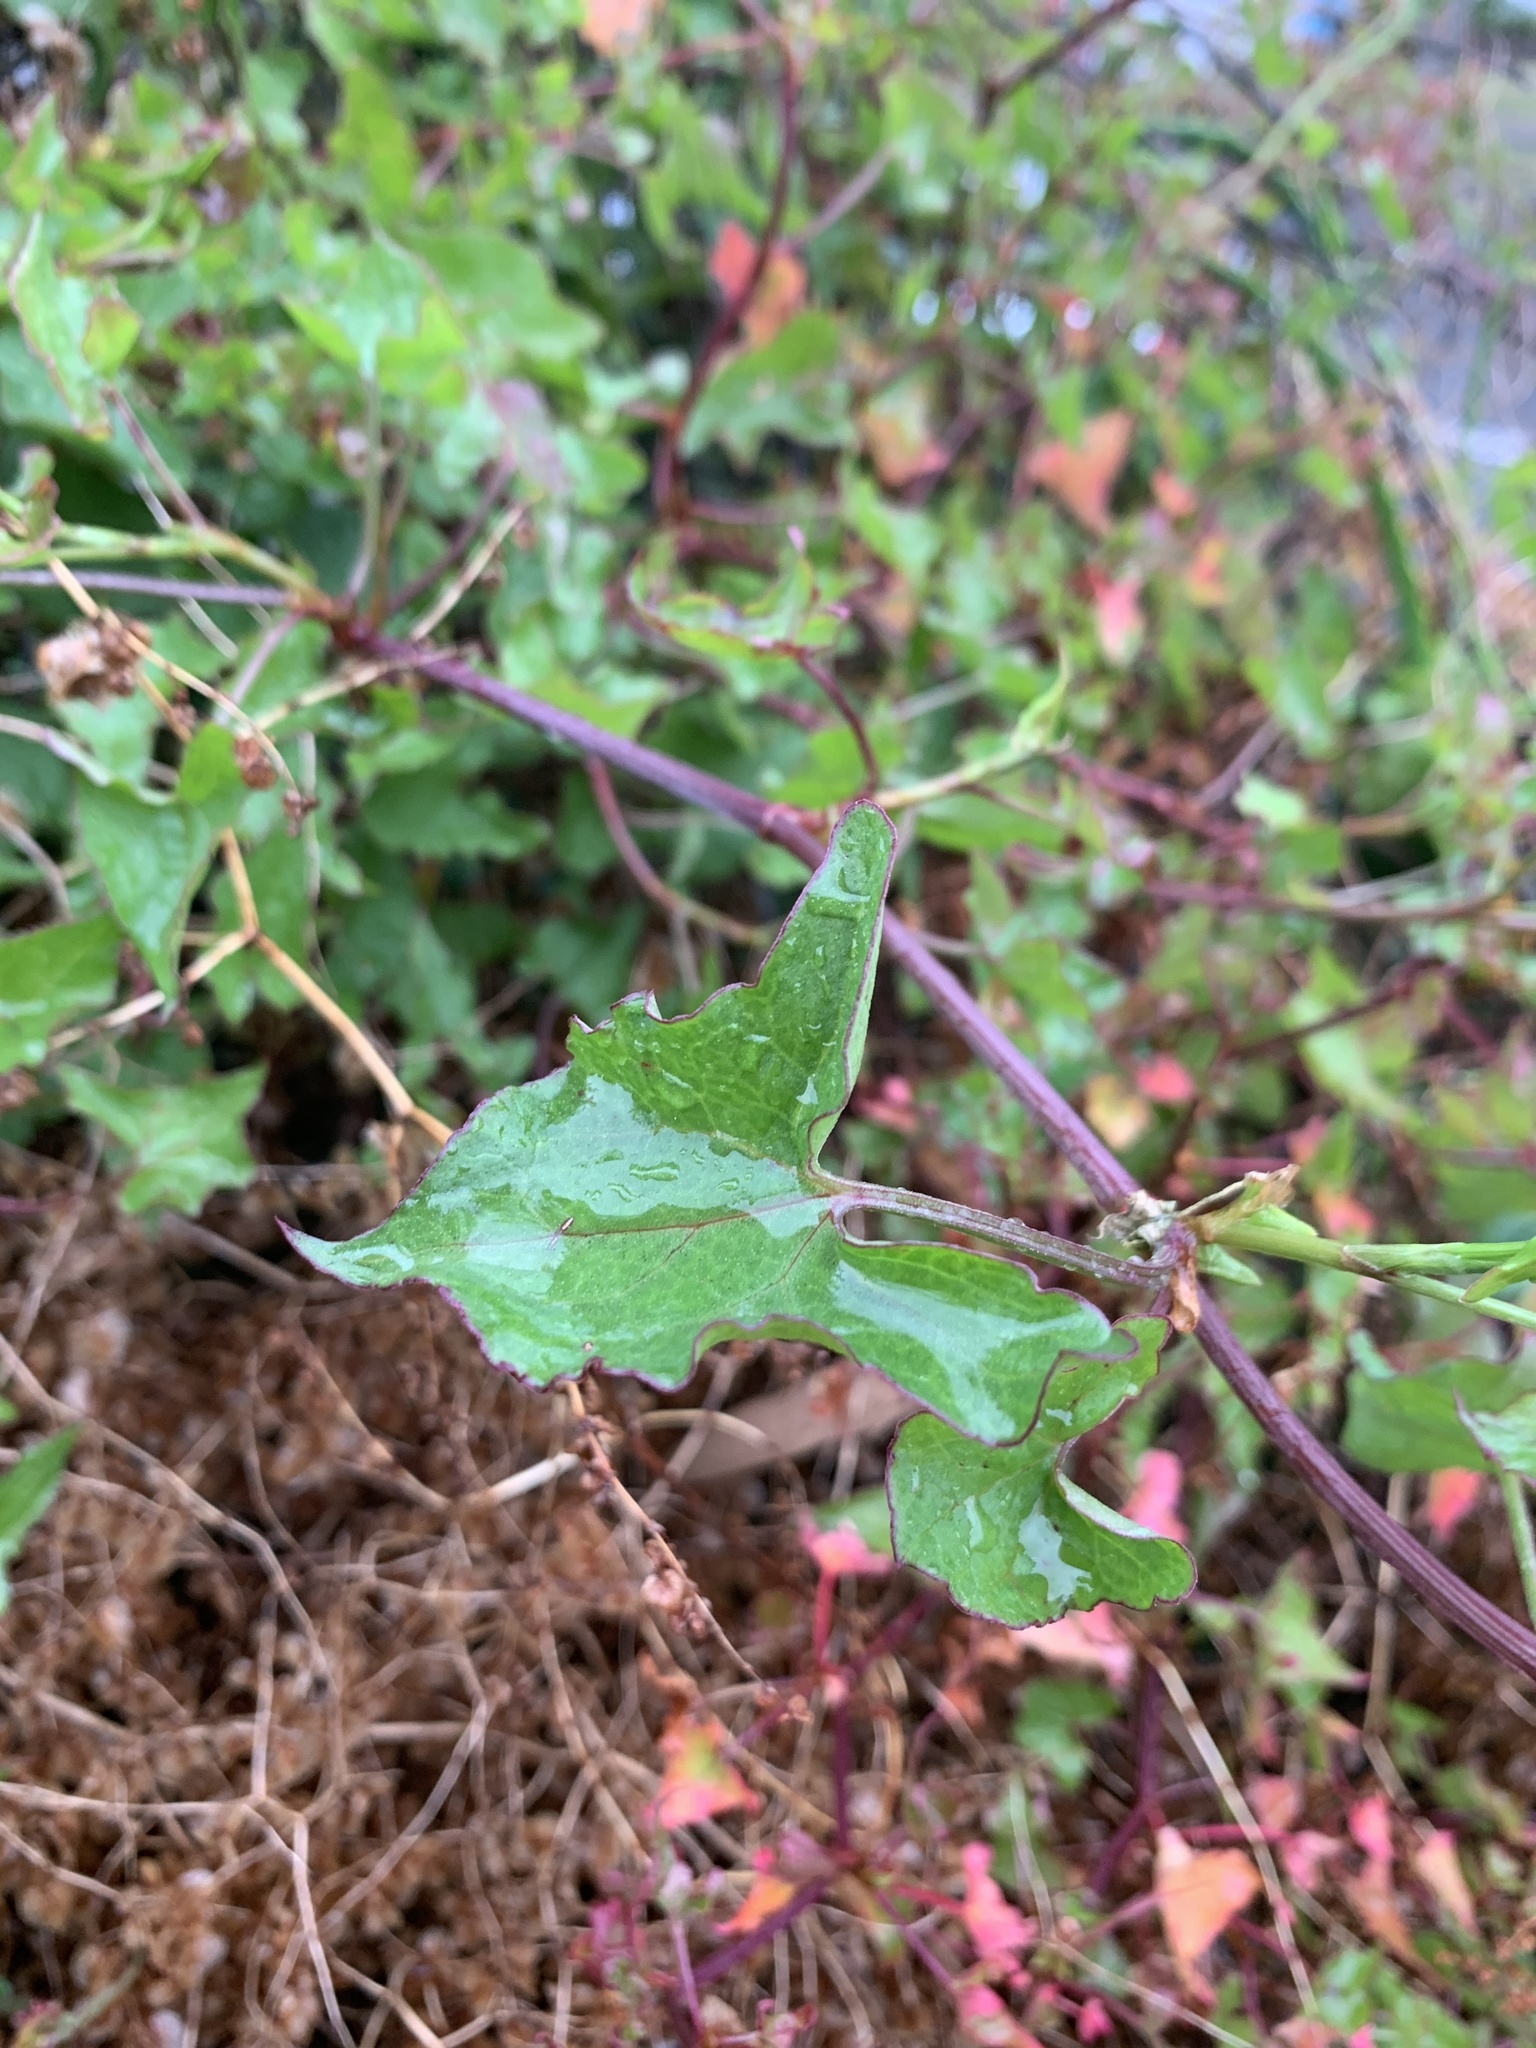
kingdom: Plantae
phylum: Tracheophyta
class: Magnoliopsida
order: Caryophyllales
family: Polygonaceae
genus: Rumex
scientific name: Rumex sagittatus
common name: Climbing dock
